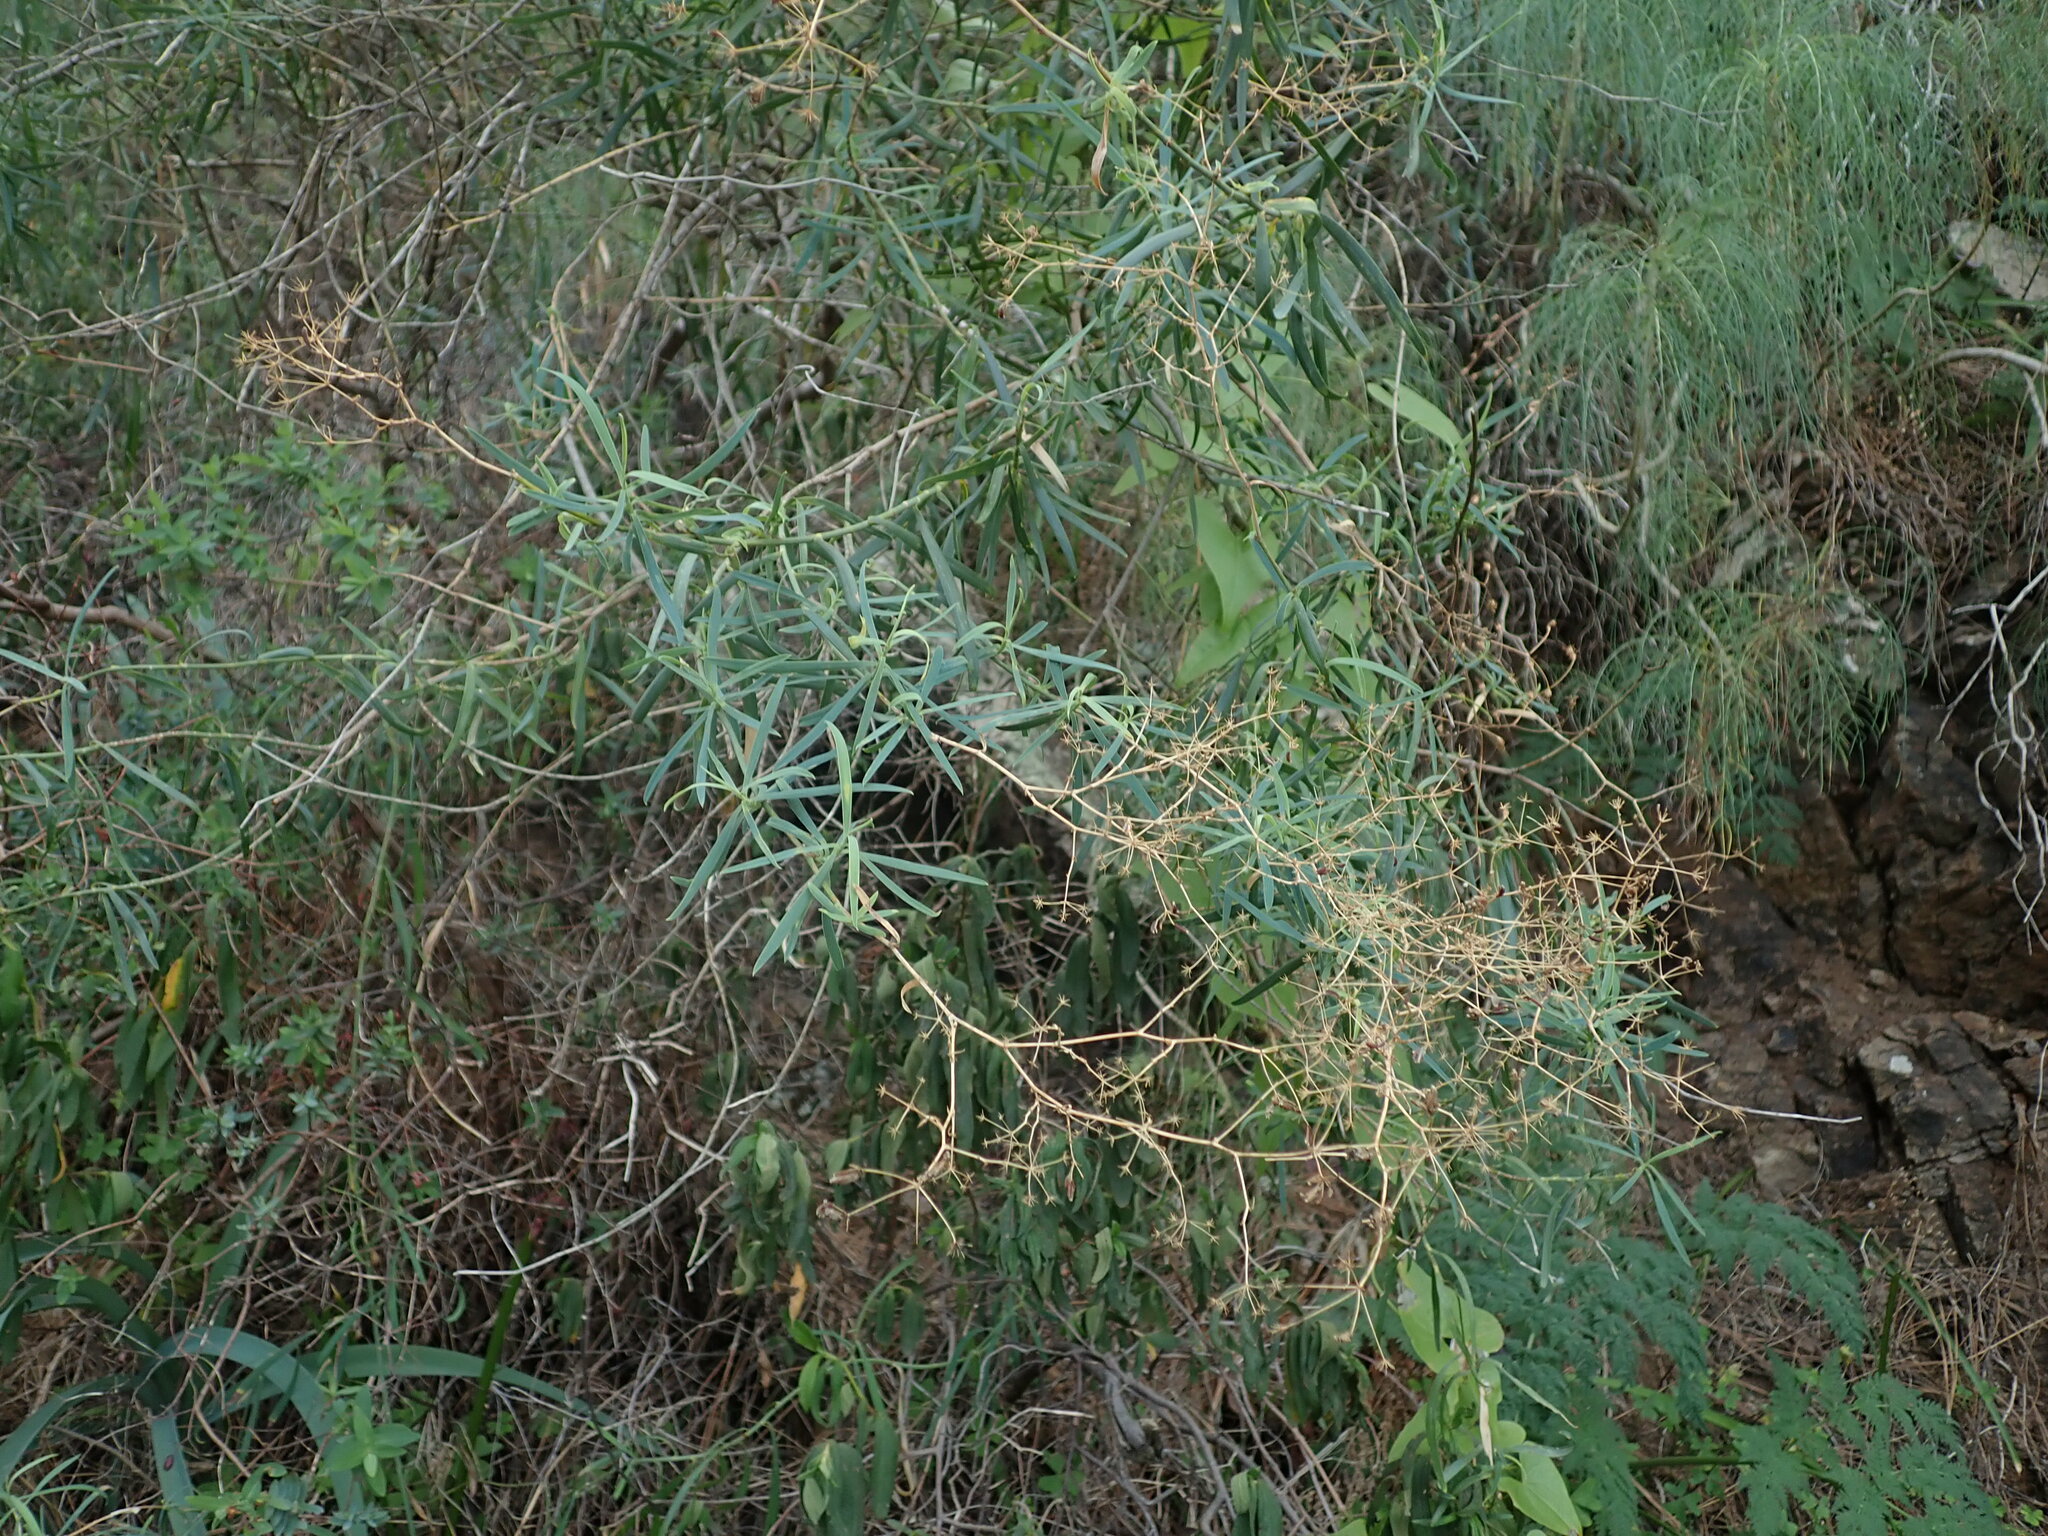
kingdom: Plantae
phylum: Tracheophyta
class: Magnoliopsida
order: Apiales
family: Apiaceae
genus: Bupleurum
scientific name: Bupleurum salicifolium
